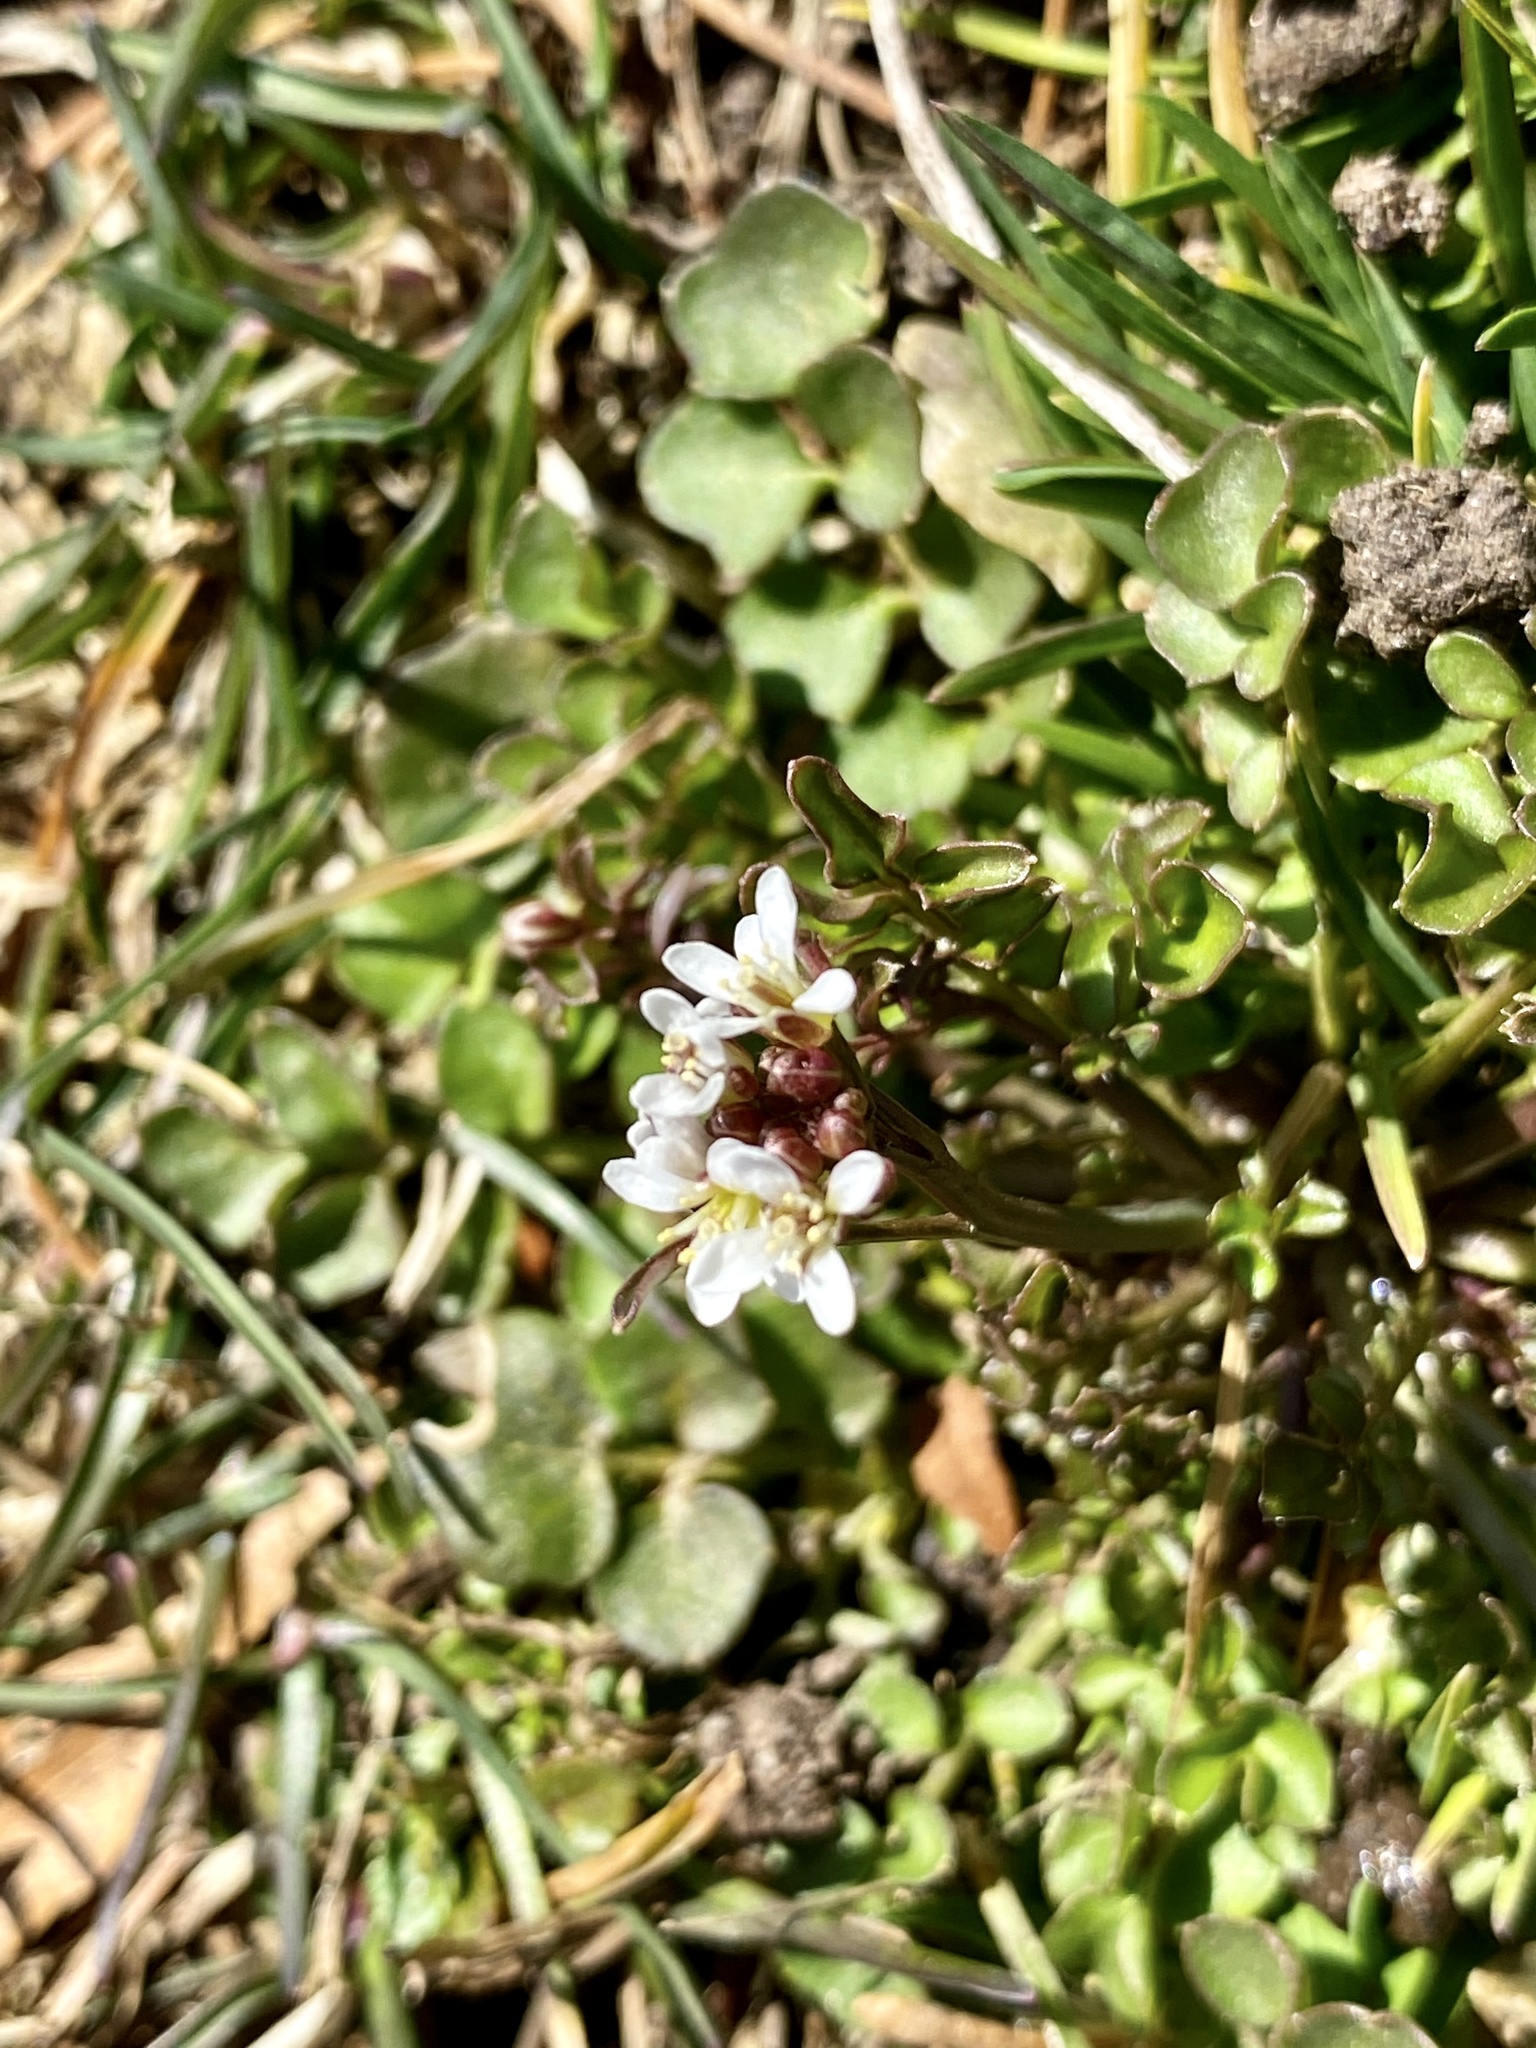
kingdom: Plantae
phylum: Tracheophyta
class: Magnoliopsida
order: Brassicales
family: Brassicaceae
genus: Cardamine
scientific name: Cardamine hirsuta
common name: Hairy bittercress
